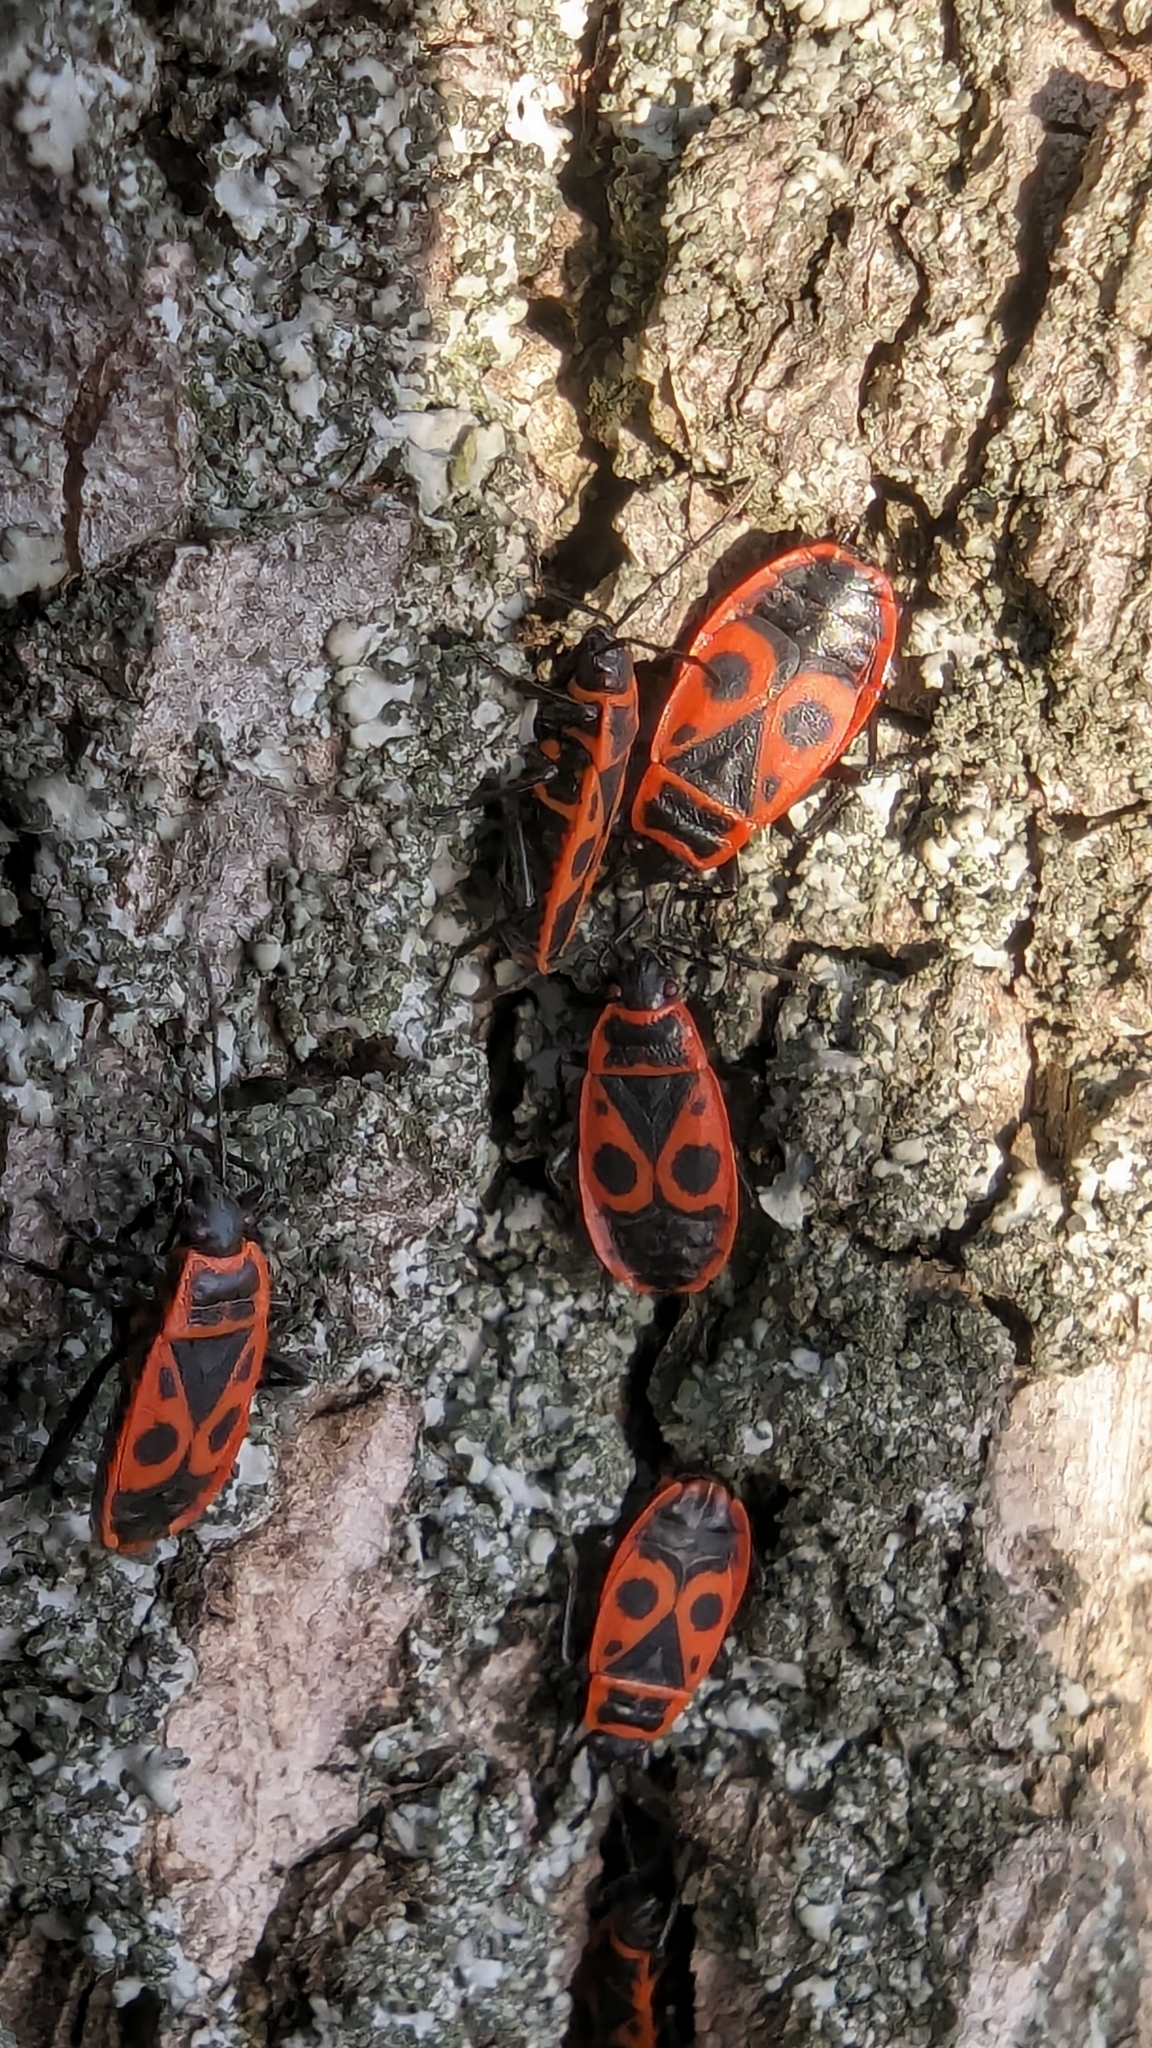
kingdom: Animalia
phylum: Arthropoda
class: Insecta
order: Hemiptera
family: Pyrrhocoridae
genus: Pyrrhocoris
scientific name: Pyrrhocoris apterus
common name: Firebug
